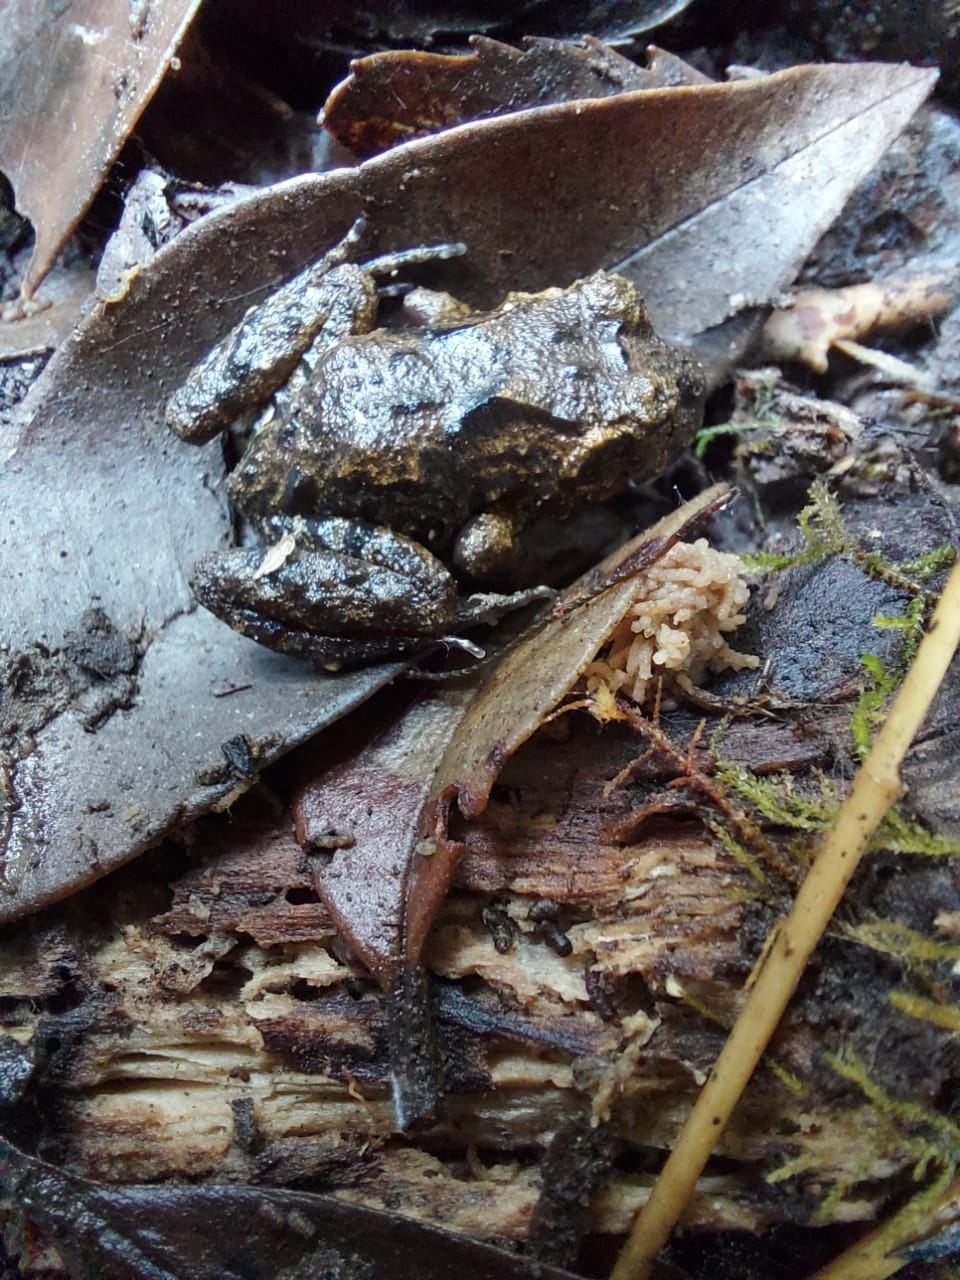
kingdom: Animalia
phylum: Chordata
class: Amphibia
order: Anura
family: Alsodidae
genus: Eupsophus
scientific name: Eupsophus emiliopugini
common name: Emilio's ground frog
